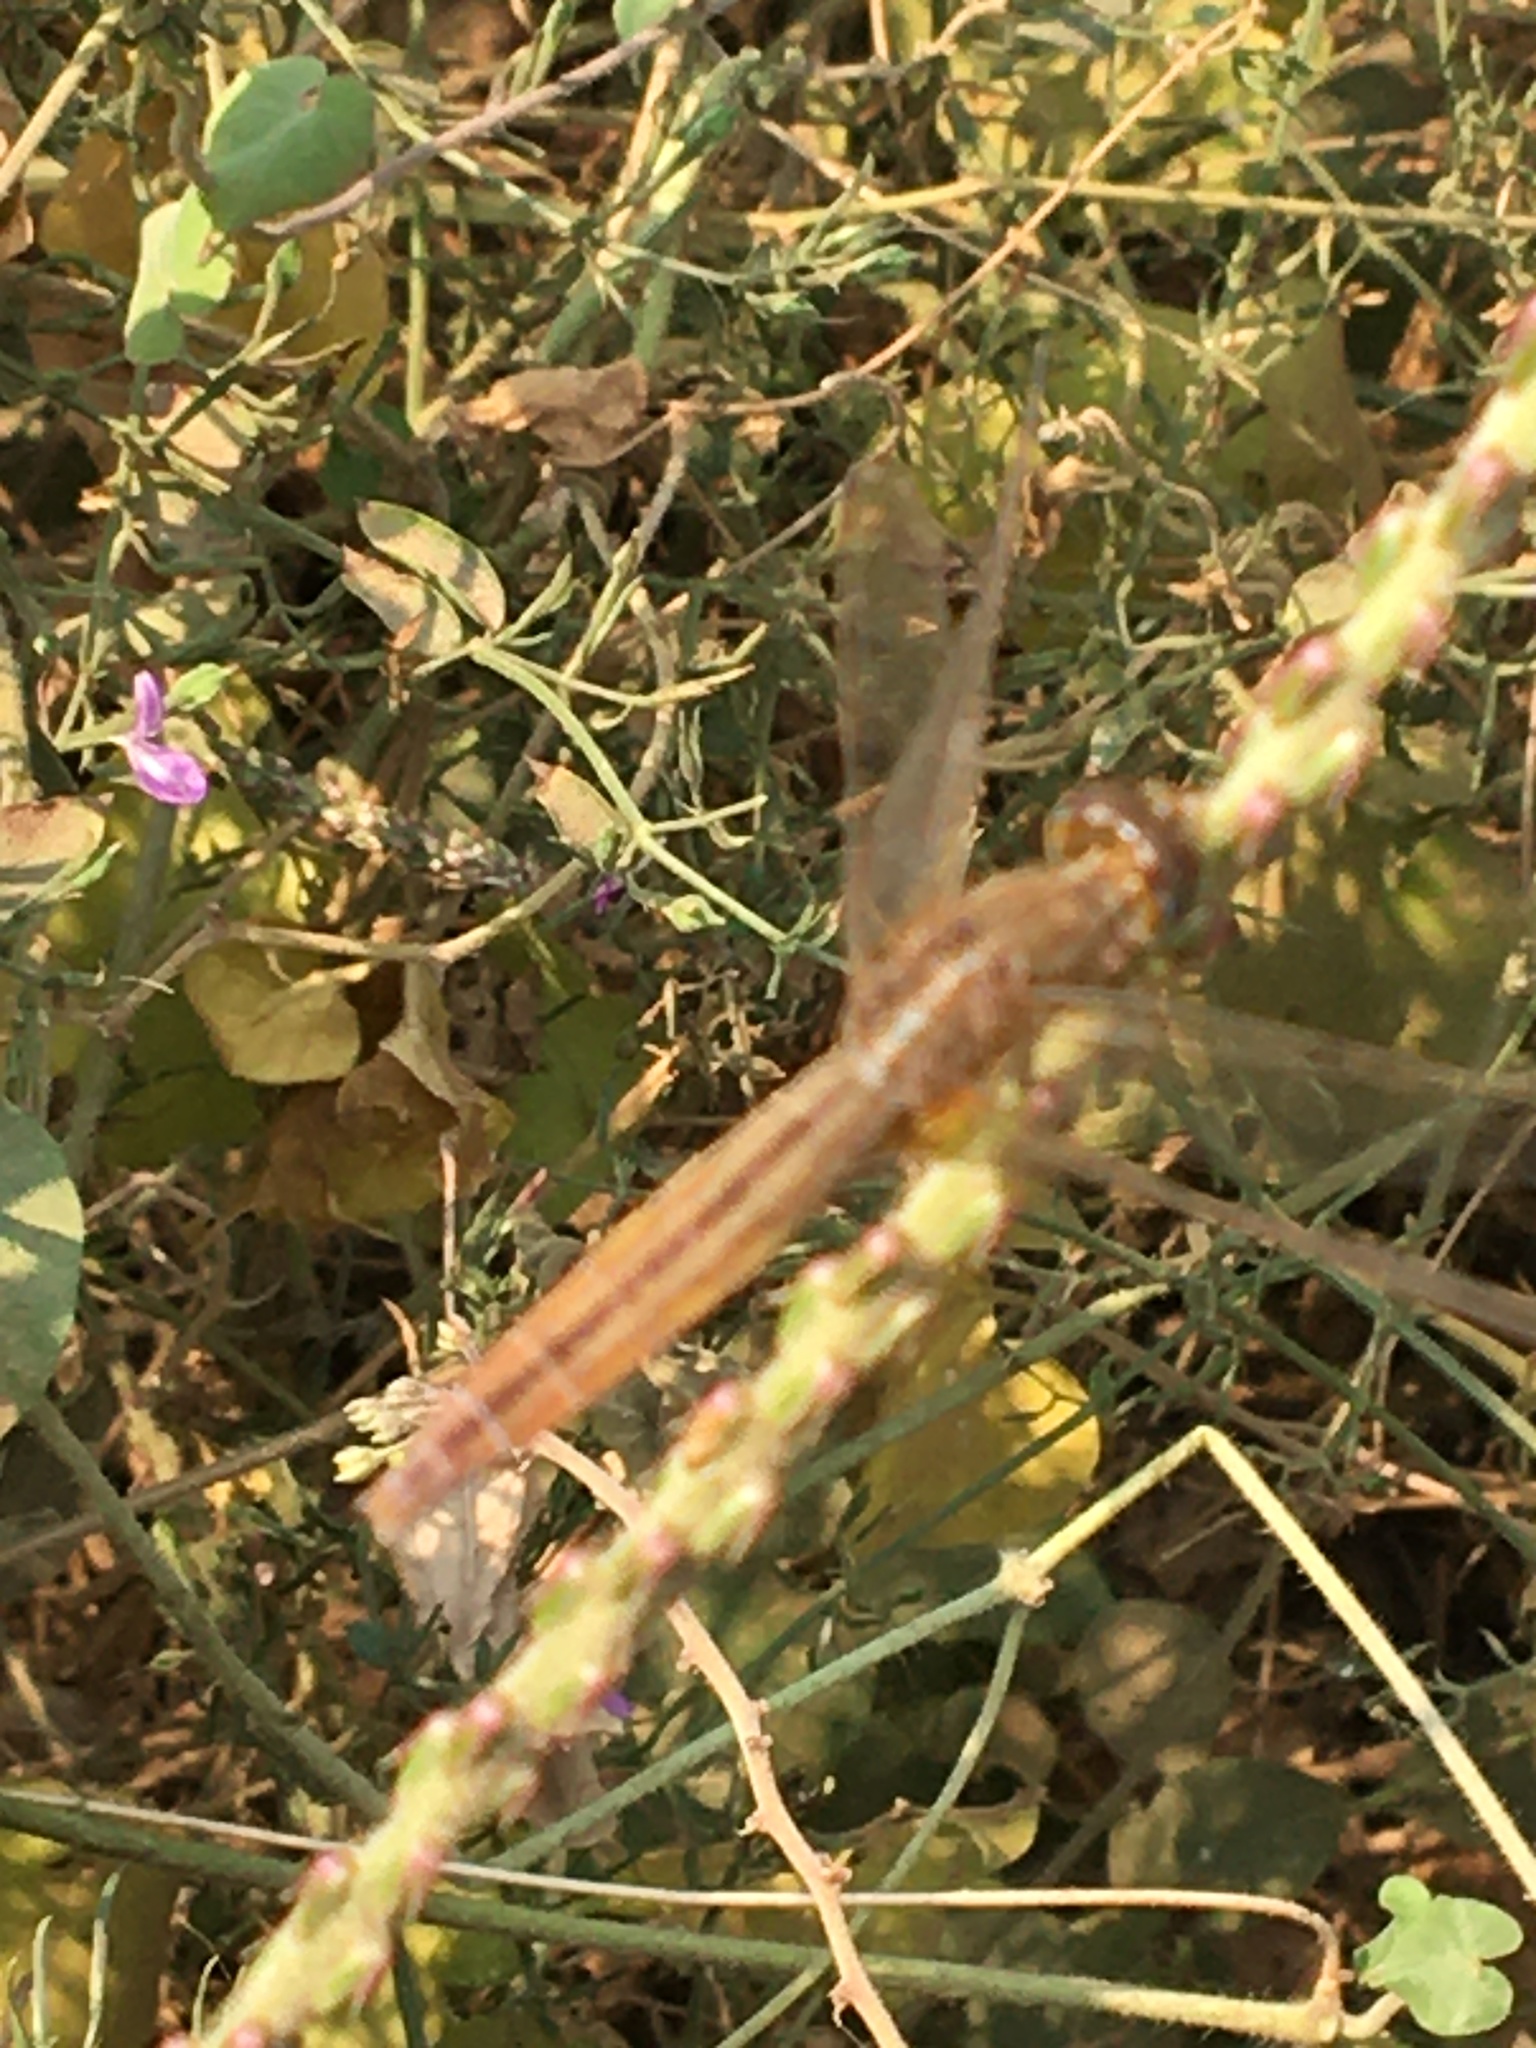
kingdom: Animalia
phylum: Arthropoda
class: Insecta
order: Odonata
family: Libellulidae
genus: Crocothemis
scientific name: Crocothemis servilia
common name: Scarlet skimmer
